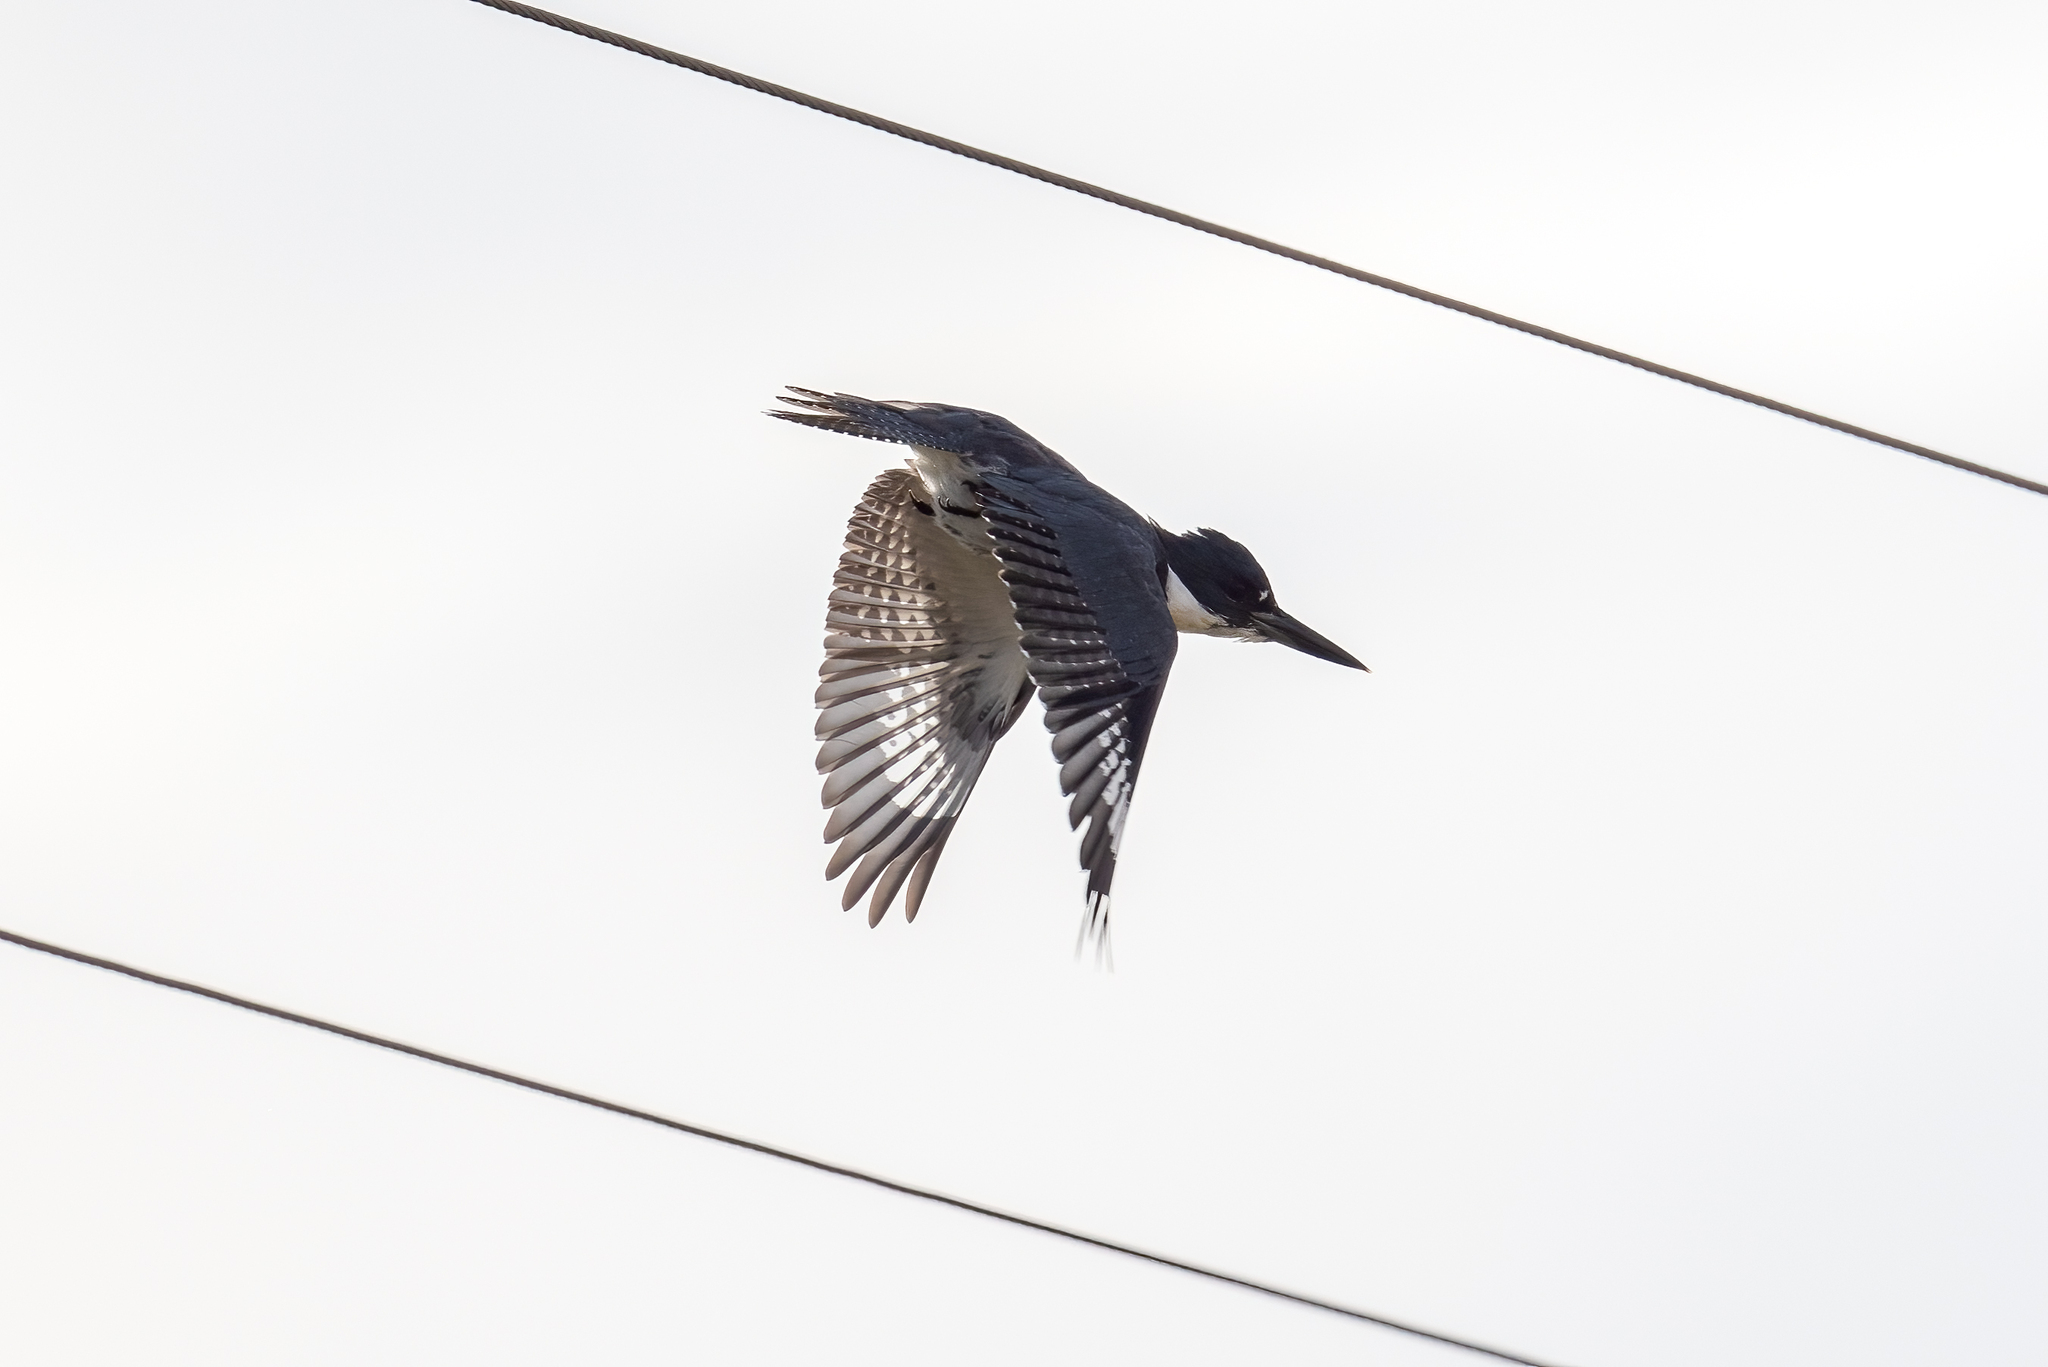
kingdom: Animalia
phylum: Chordata
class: Aves
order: Coraciiformes
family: Alcedinidae
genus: Megaceryle
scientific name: Megaceryle alcyon
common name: Belted kingfisher
